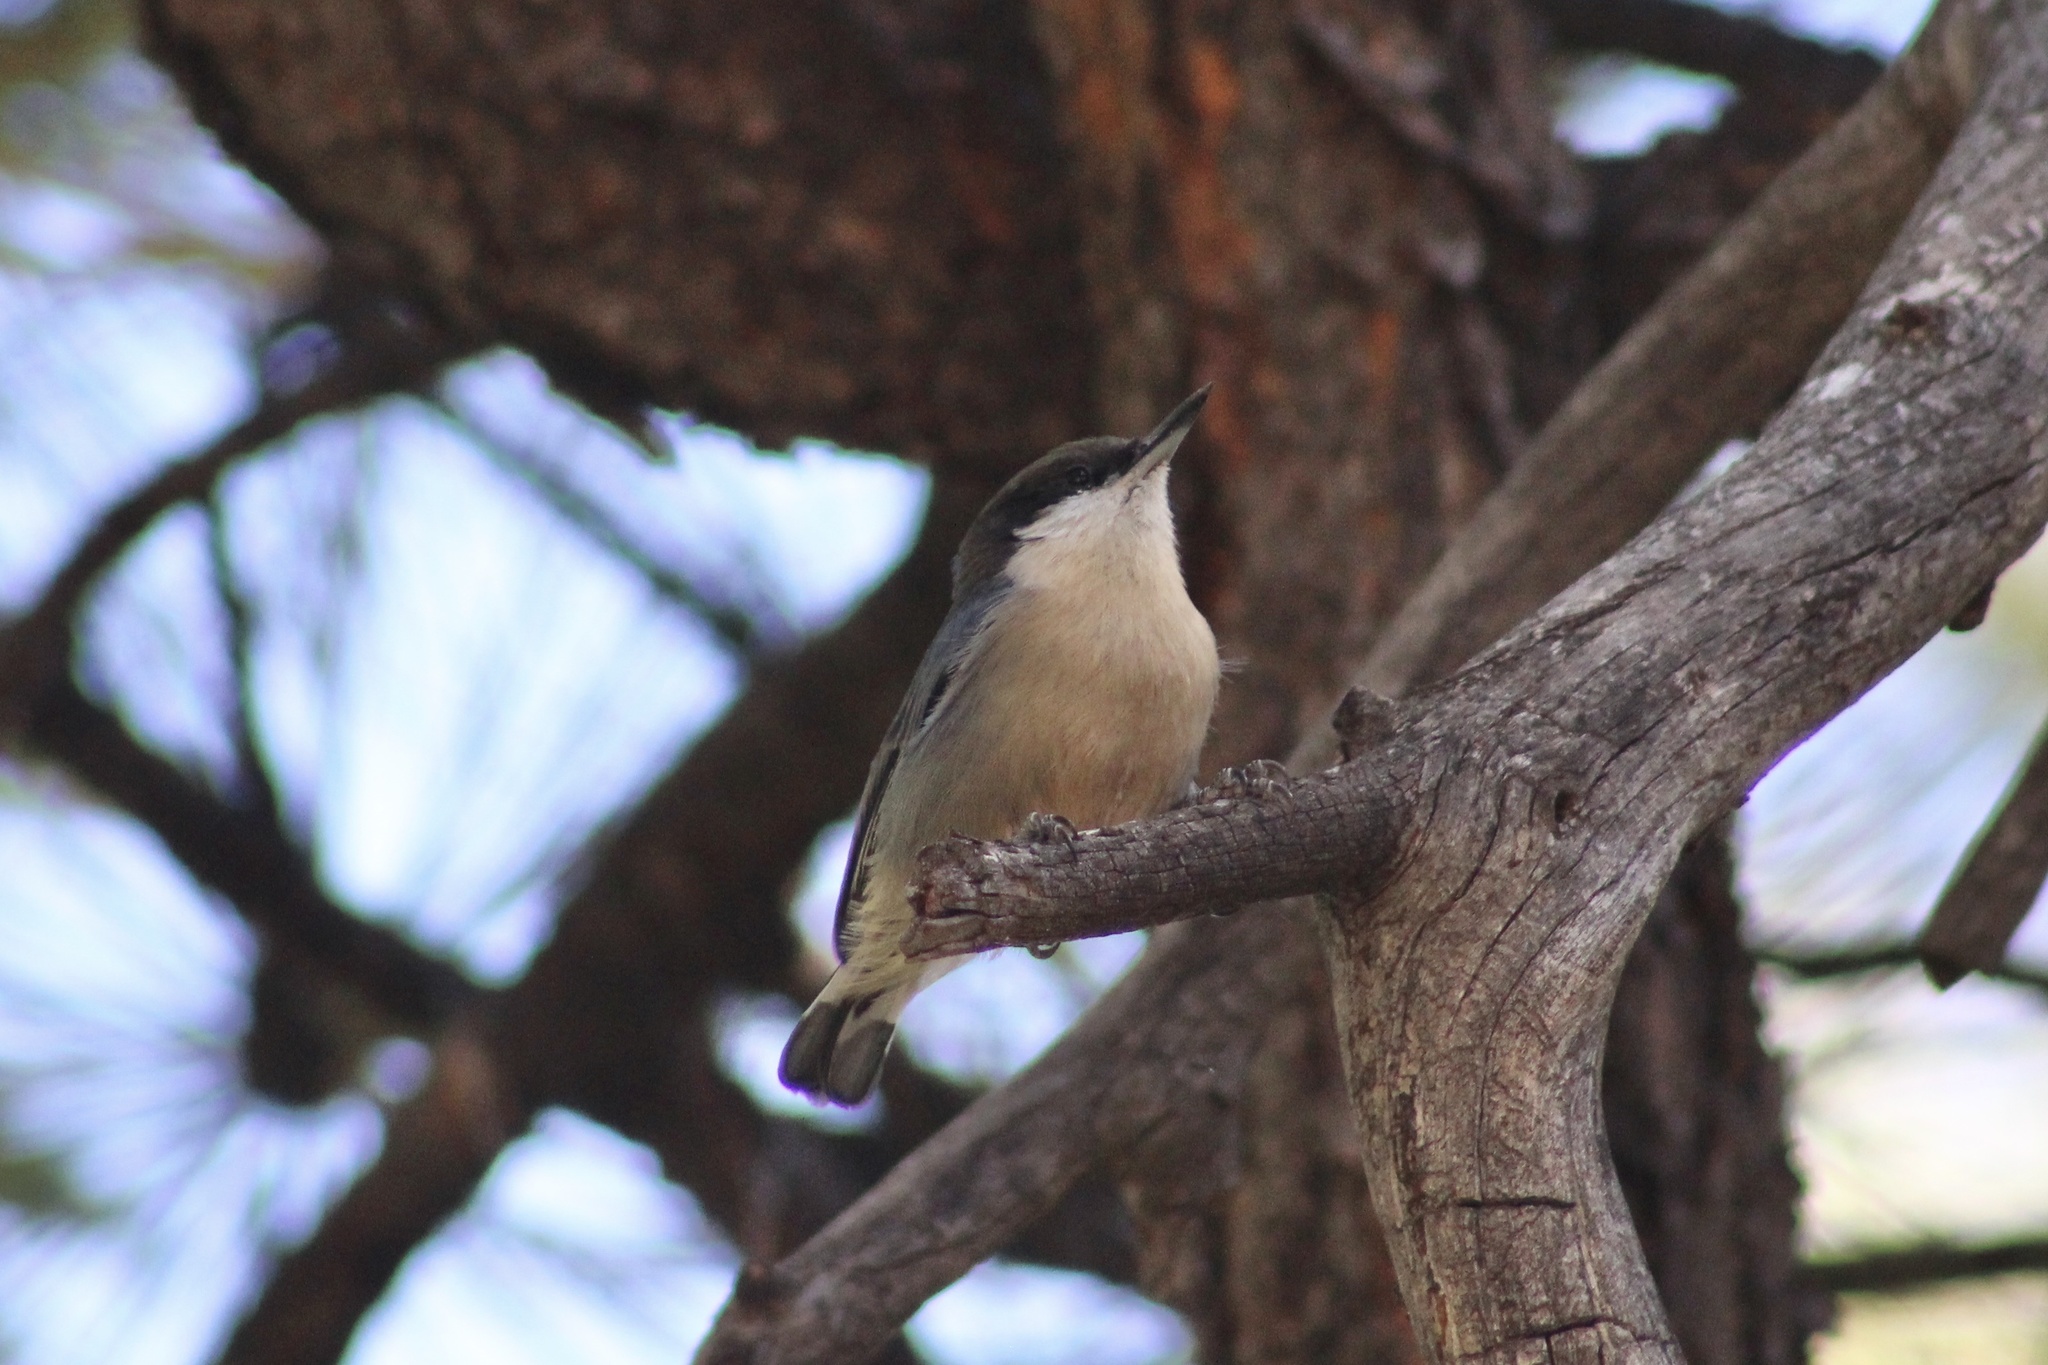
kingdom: Animalia
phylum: Chordata
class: Aves
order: Passeriformes
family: Sittidae
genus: Sitta
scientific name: Sitta pygmaea
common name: Pygmy nuthatch
